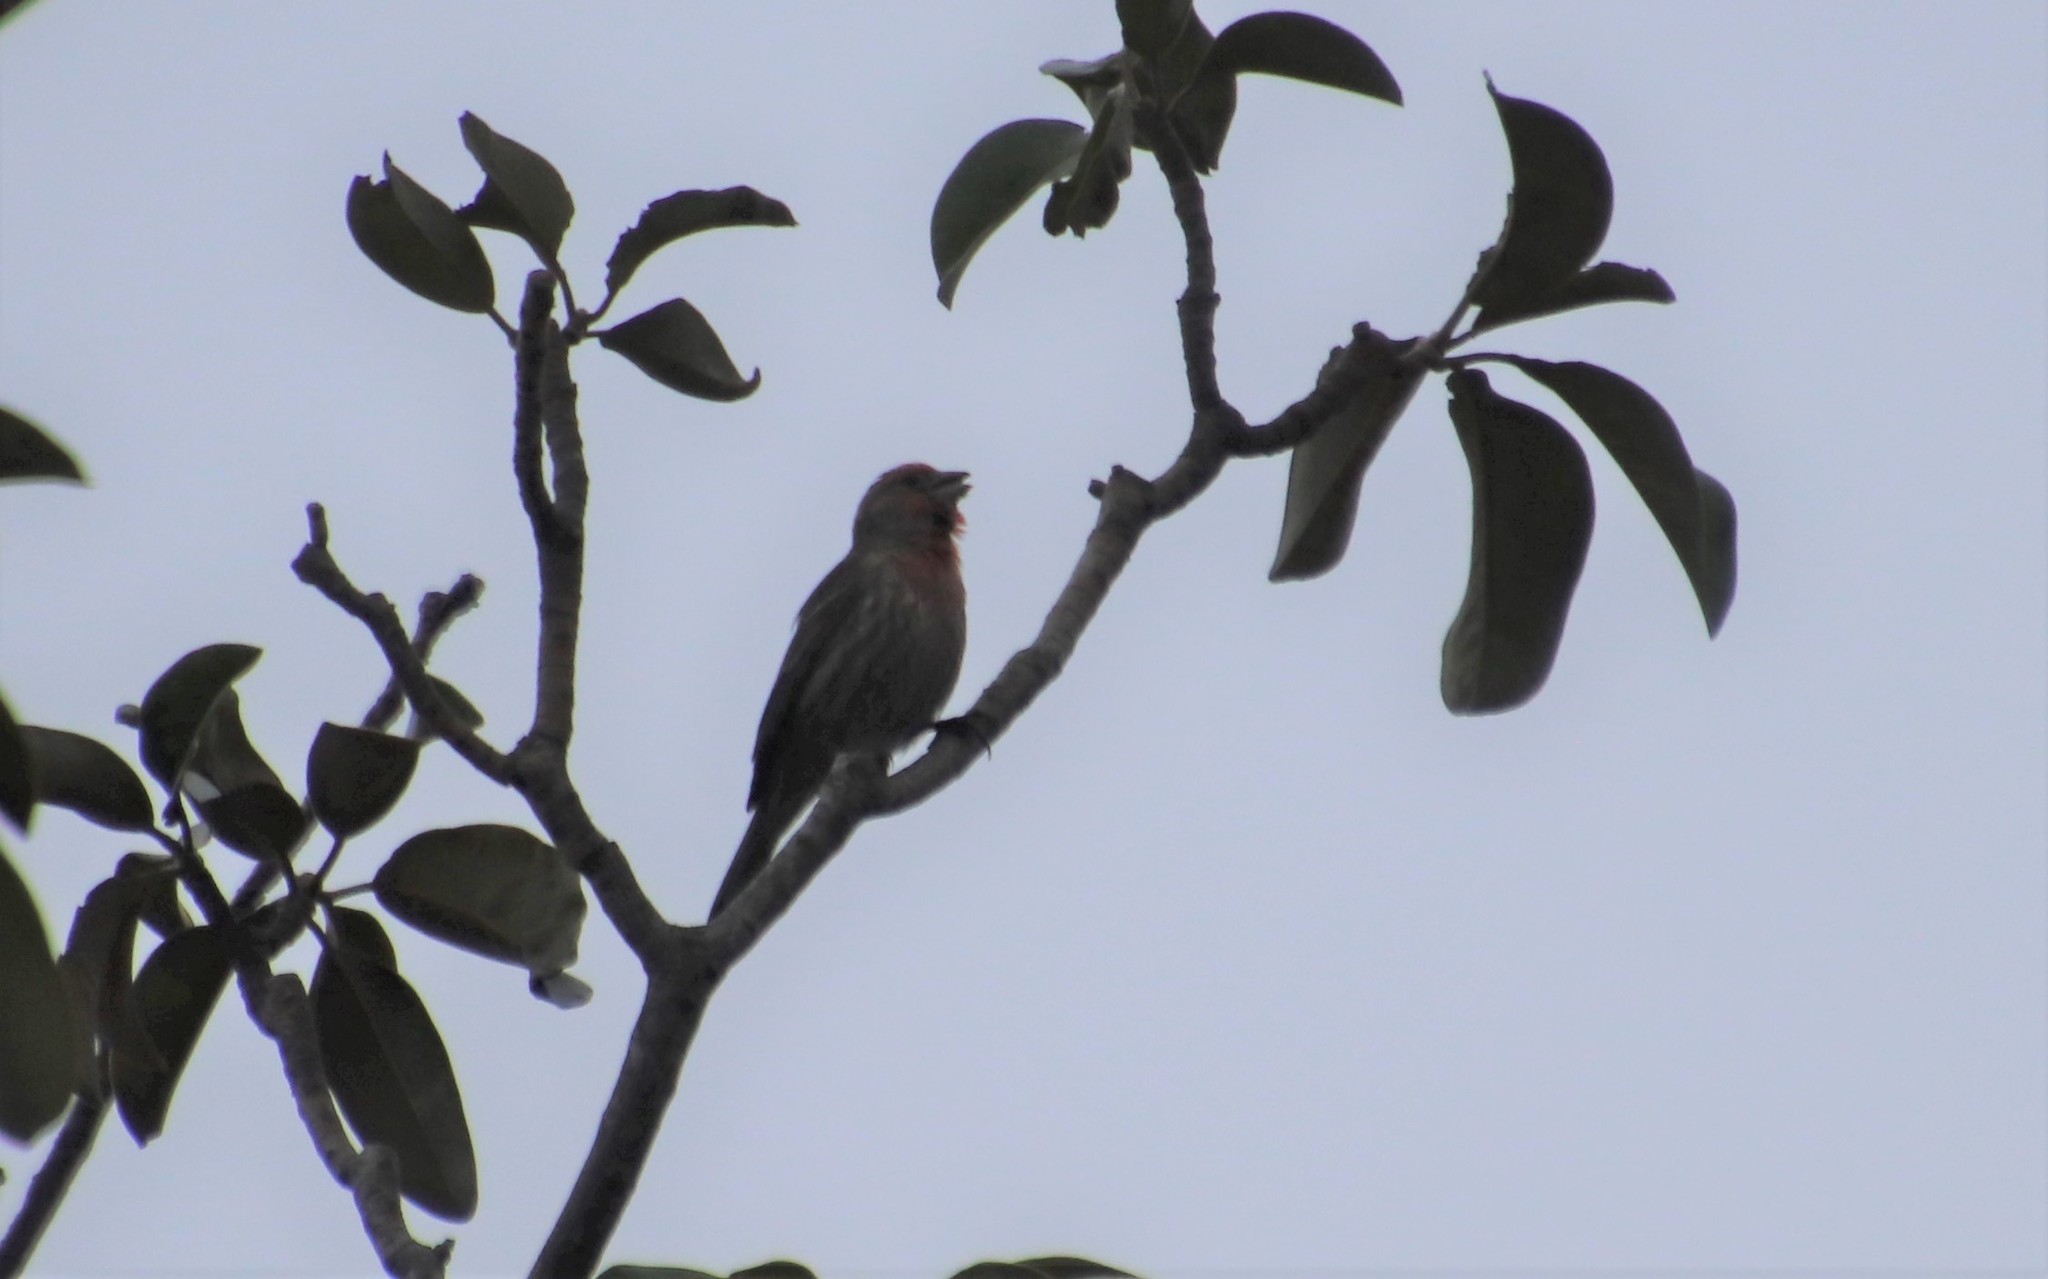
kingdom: Animalia
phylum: Chordata
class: Aves
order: Passeriformes
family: Fringillidae
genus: Haemorhous
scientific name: Haemorhous mexicanus
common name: House finch
